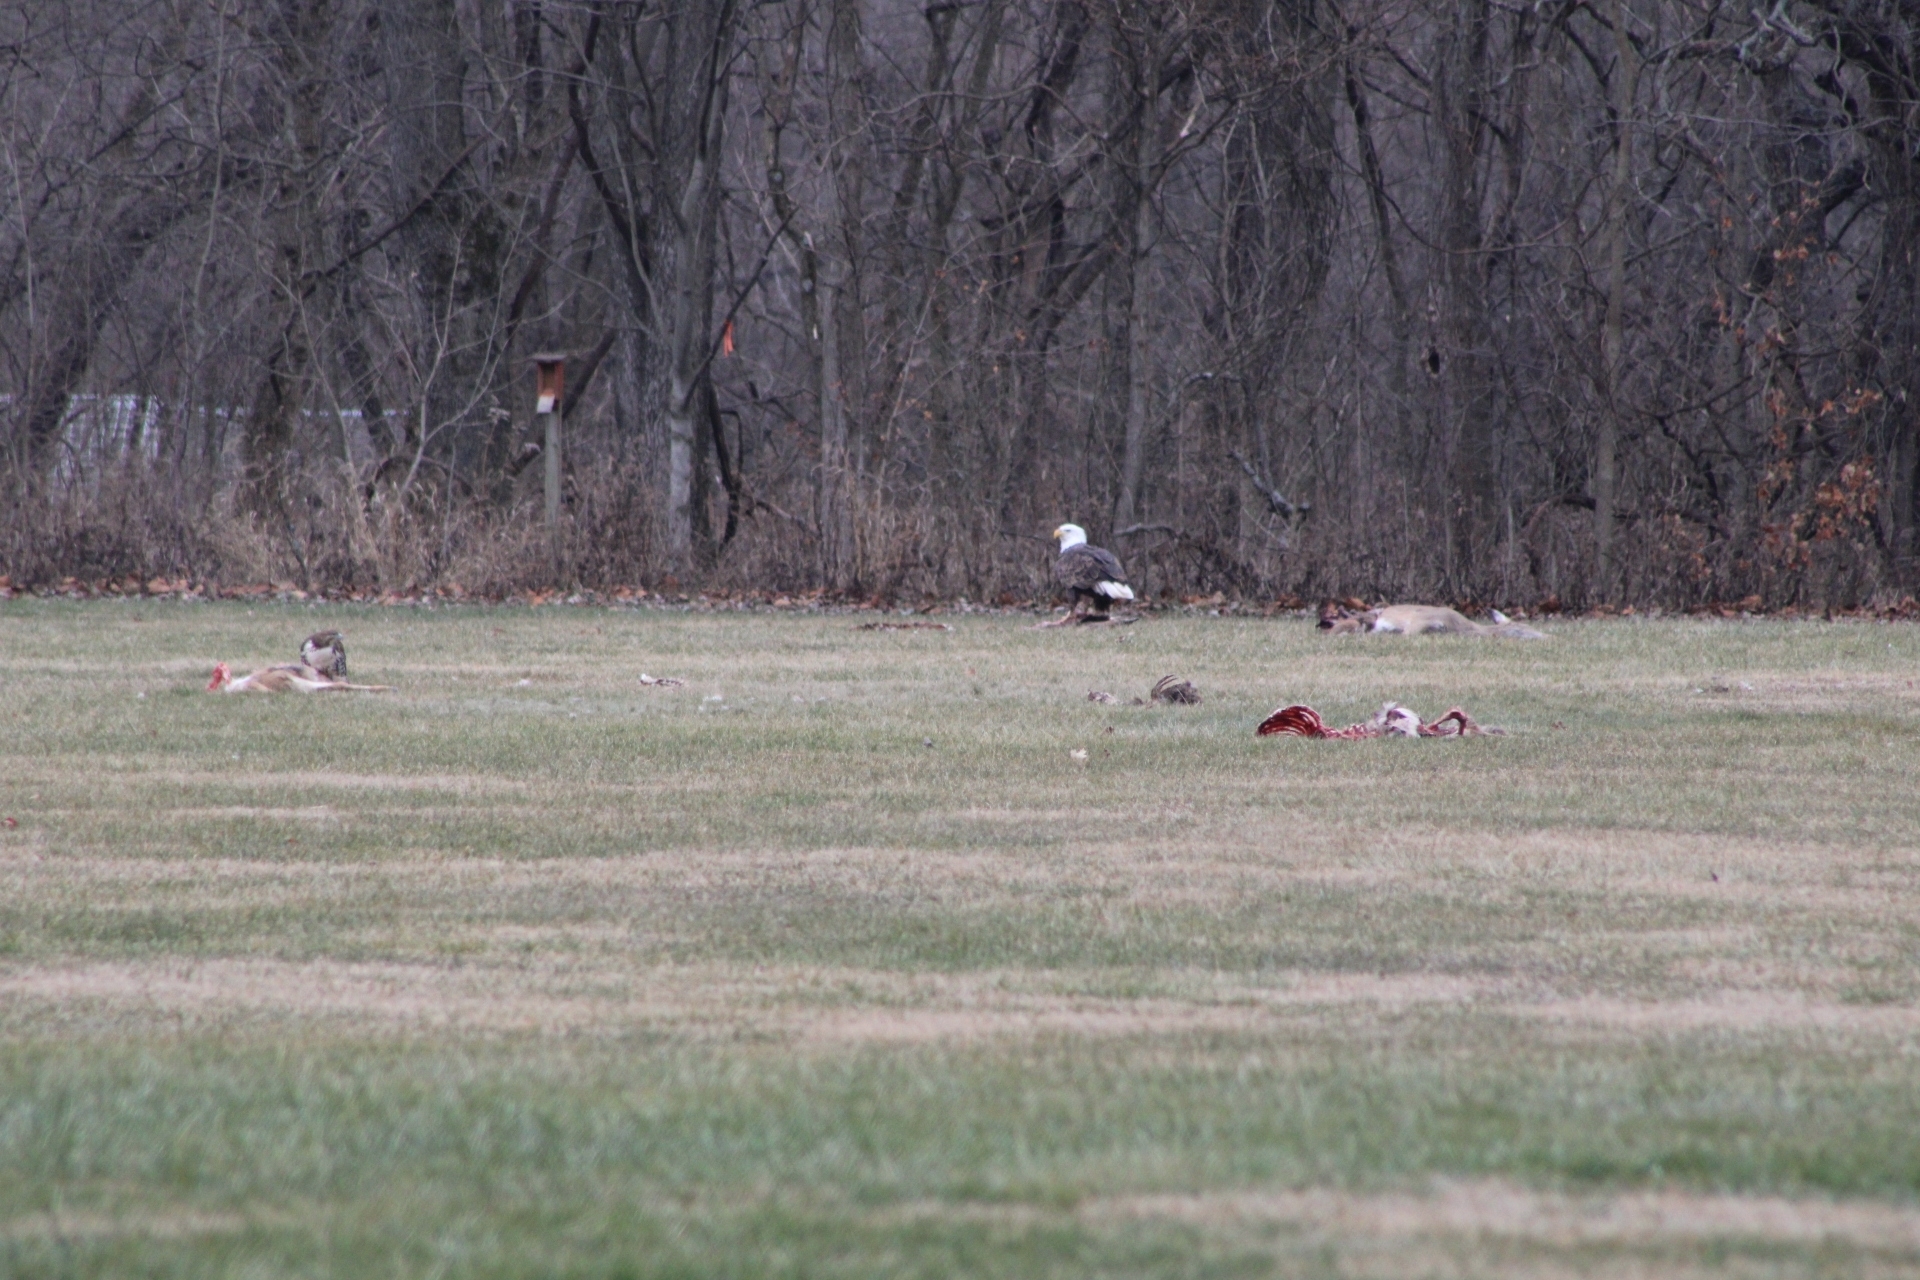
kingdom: Animalia
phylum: Chordata
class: Aves
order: Accipitriformes
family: Accipitridae
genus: Buteo
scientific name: Buteo jamaicensis
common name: Red-tailed hawk
